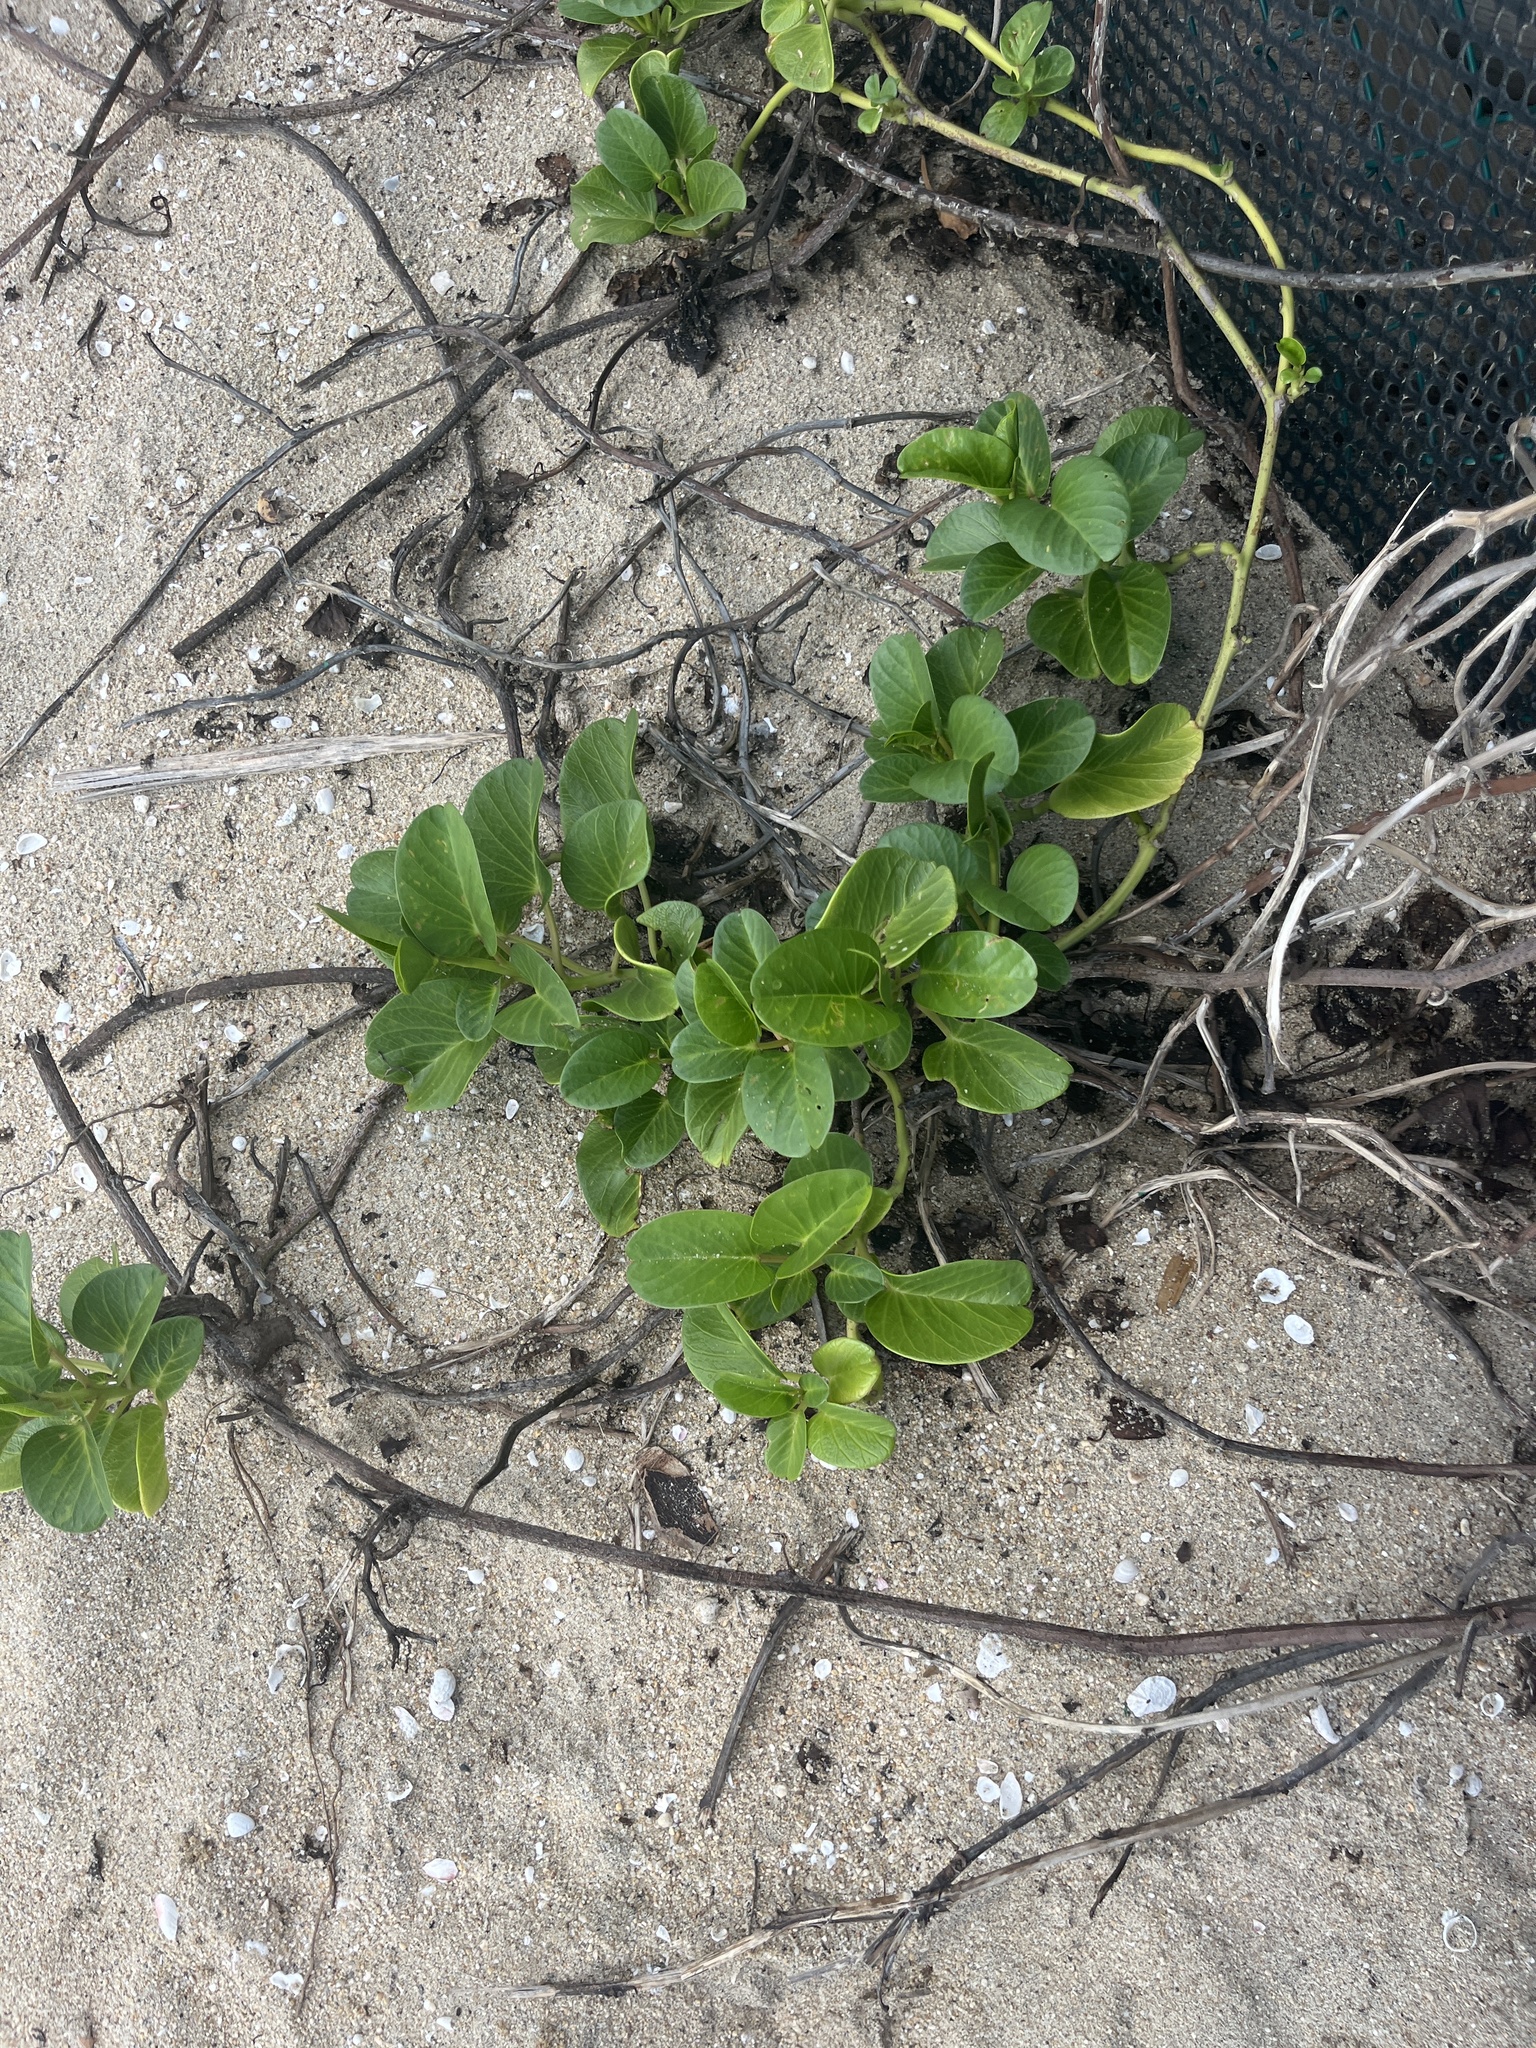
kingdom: Plantae
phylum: Tracheophyta
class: Magnoliopsida
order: Solanales
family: Convolvulaceae
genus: Ipomoea
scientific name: Ipomoea pes-caprae
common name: Beach morning glory
